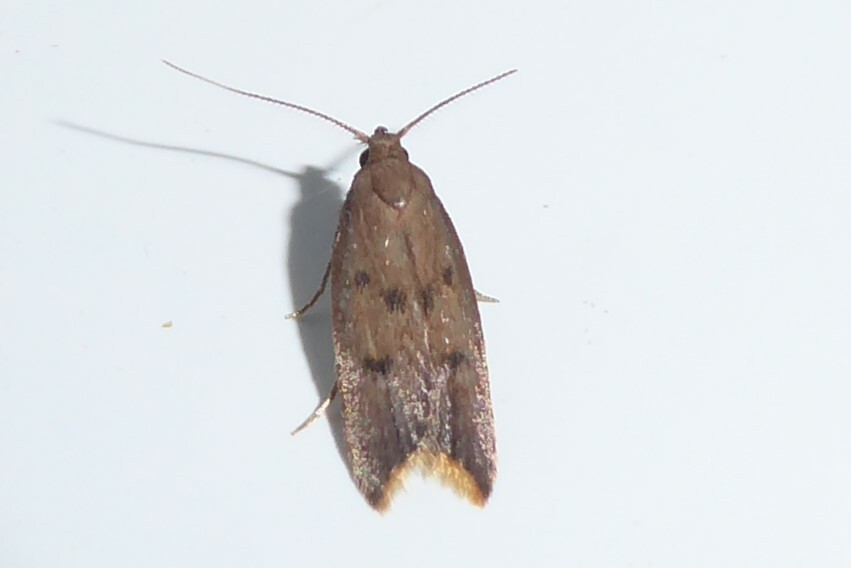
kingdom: Animalia
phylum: Arthropoda
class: Insecta
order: Lepidoptera
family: Oecophoridae
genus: Tachystola
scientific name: Tachystola acroxantha
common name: Ruddy streak
